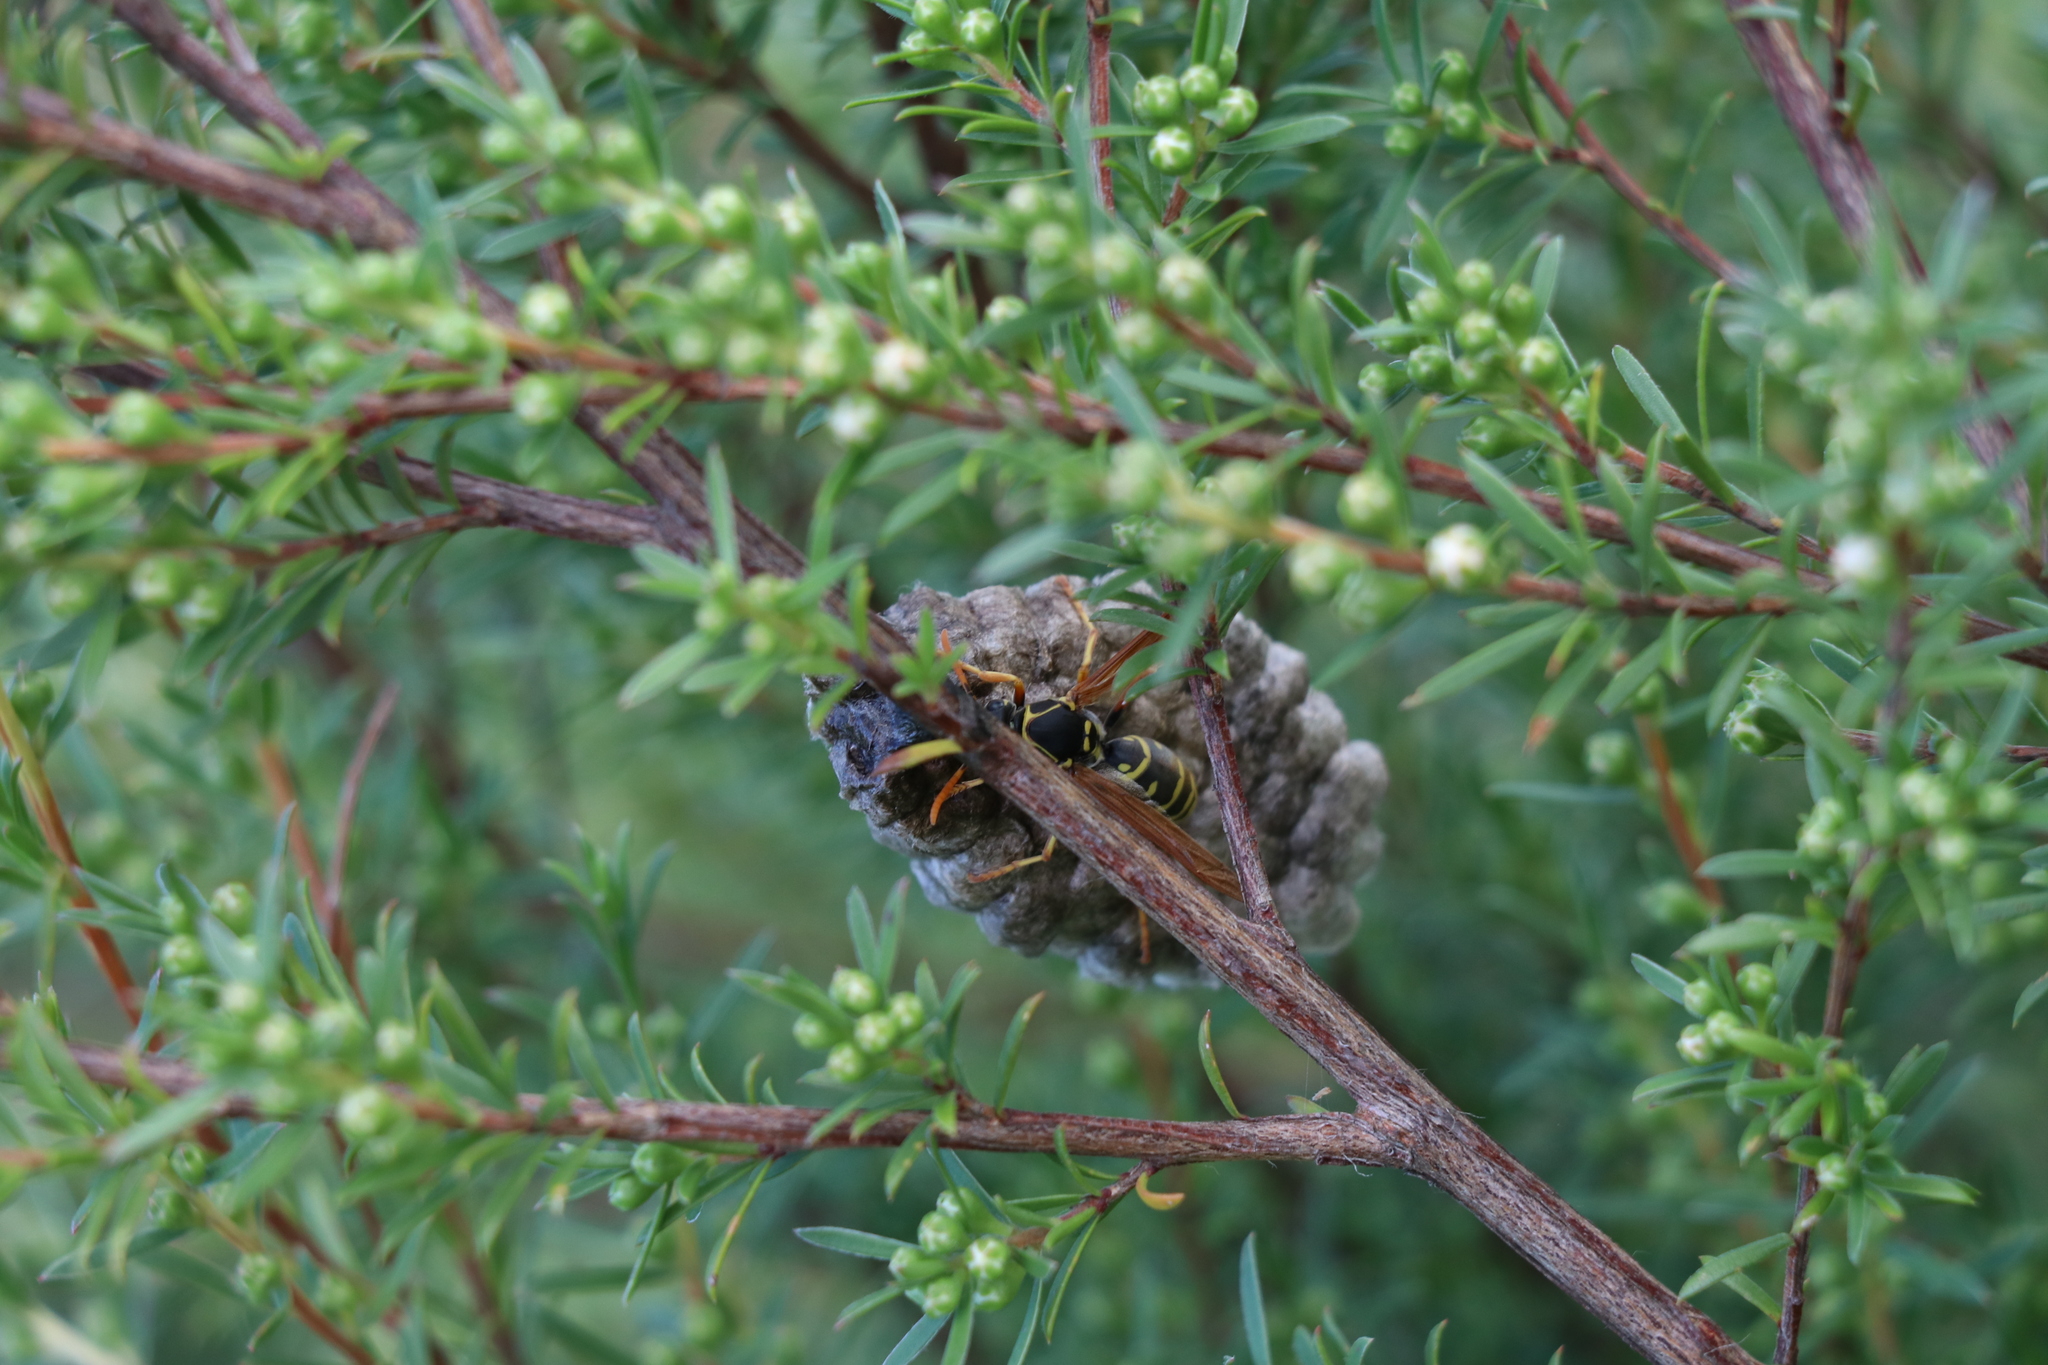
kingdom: Animalia
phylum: Arthropoda
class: Insecta
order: Hymenoptera
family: Eumenidae
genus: Polistes
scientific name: Polistes chinensis
